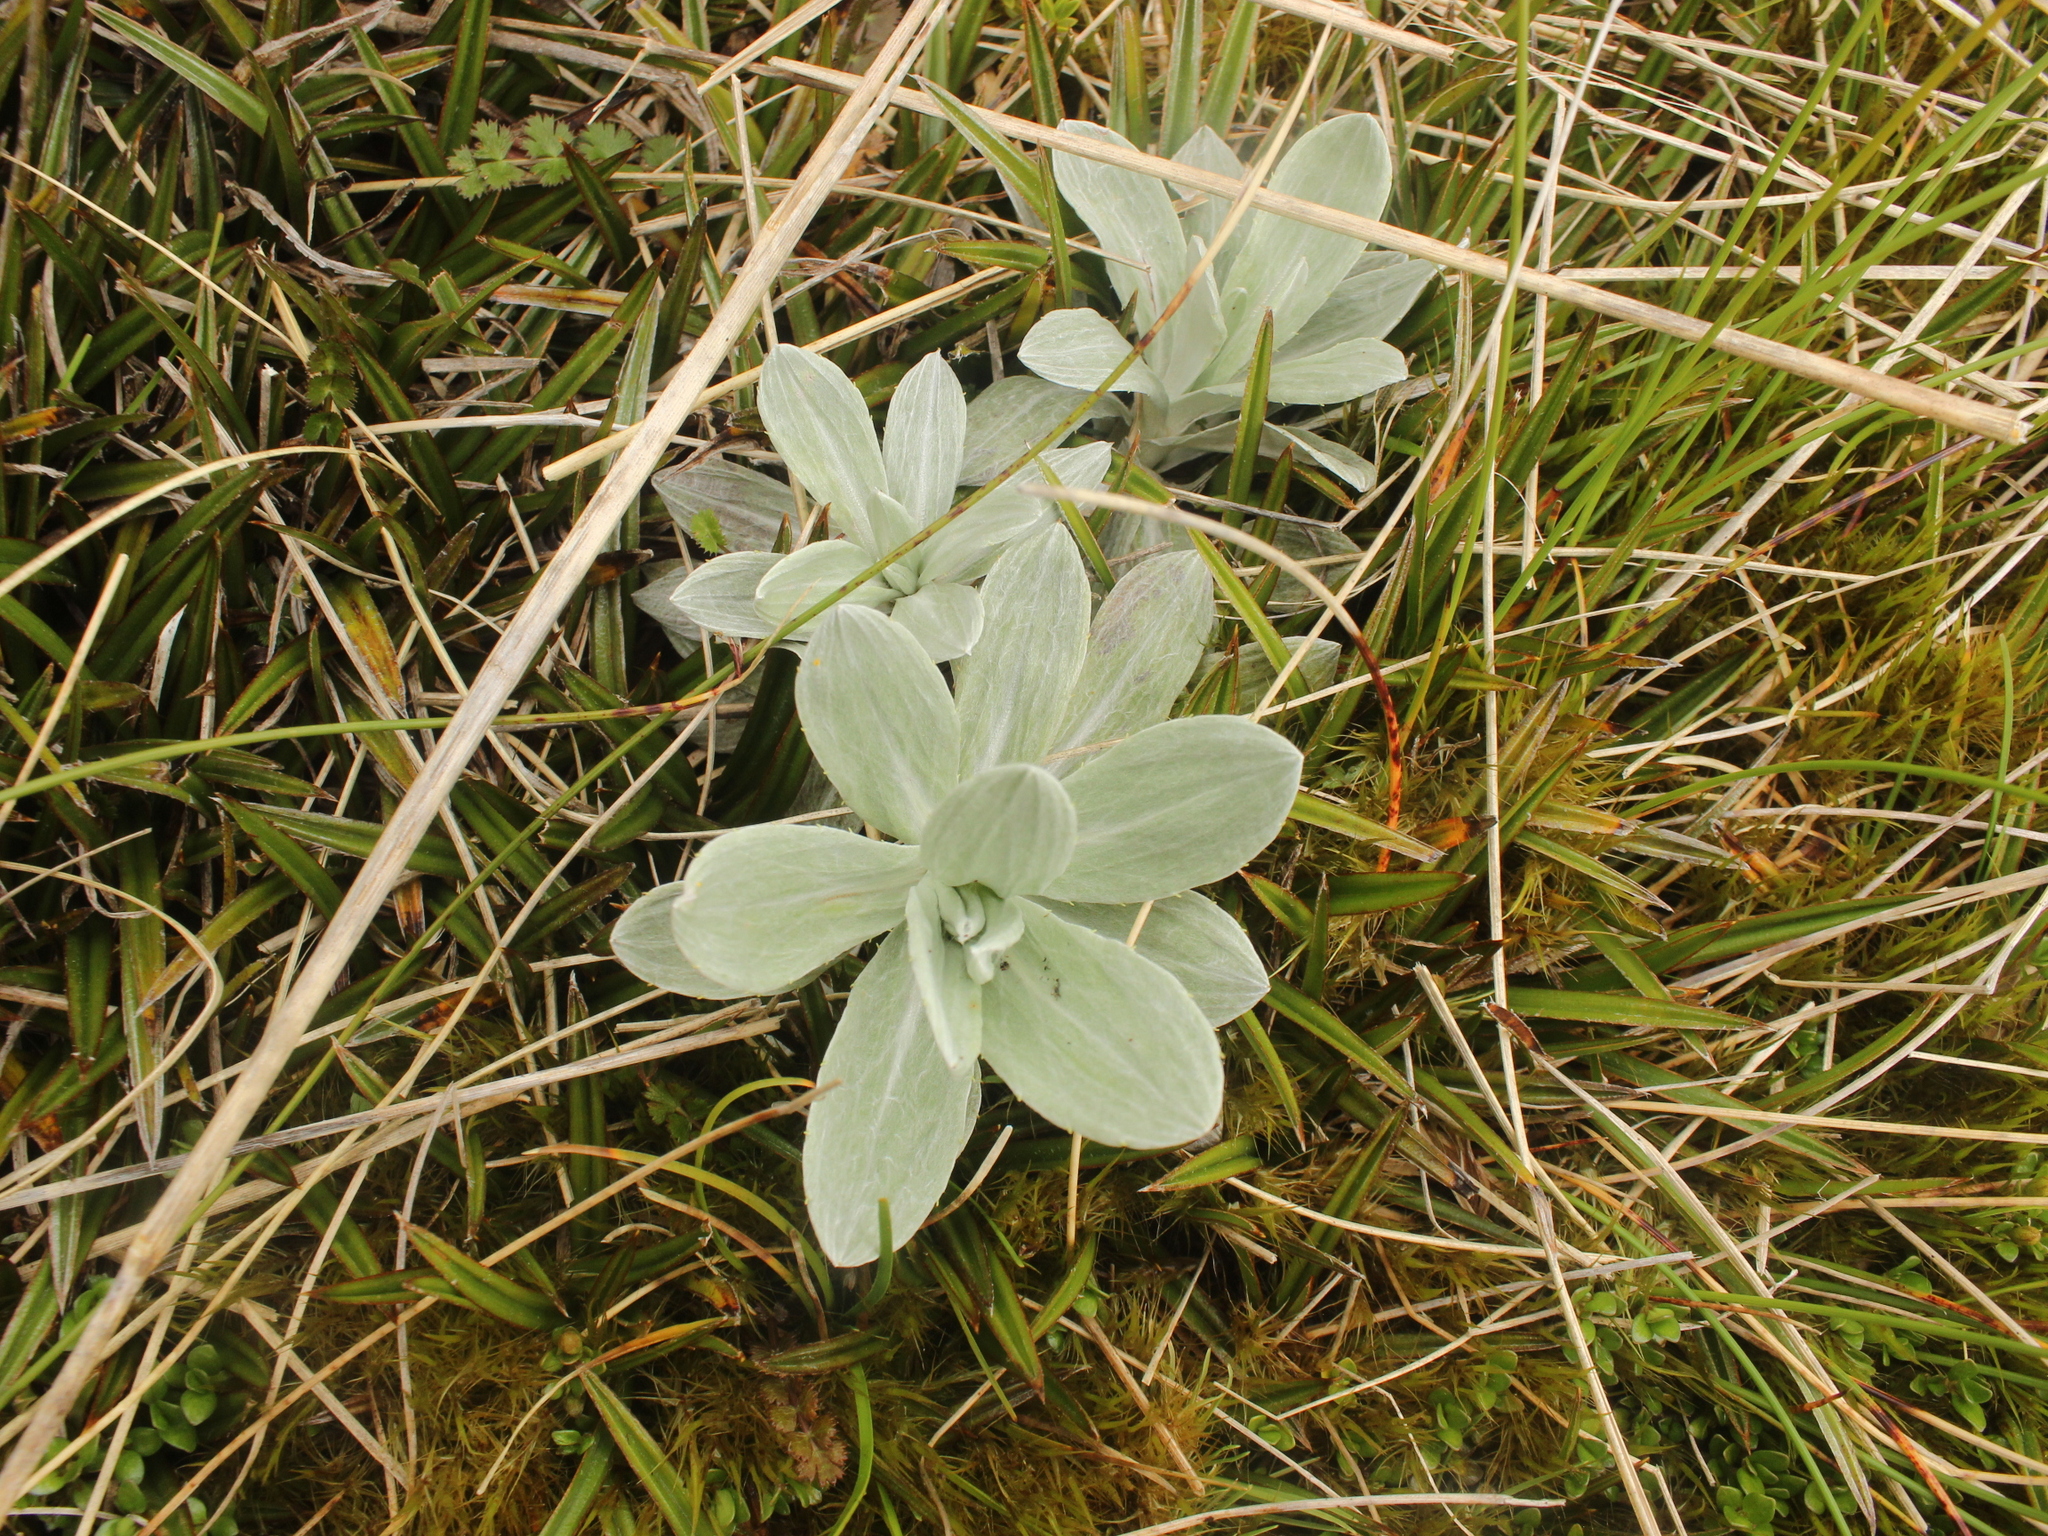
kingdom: Plantae
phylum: Tracheophyta
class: Magnoliopsida
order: Asterales
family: Asteraceae
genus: Celmisia
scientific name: Celmisia incana
